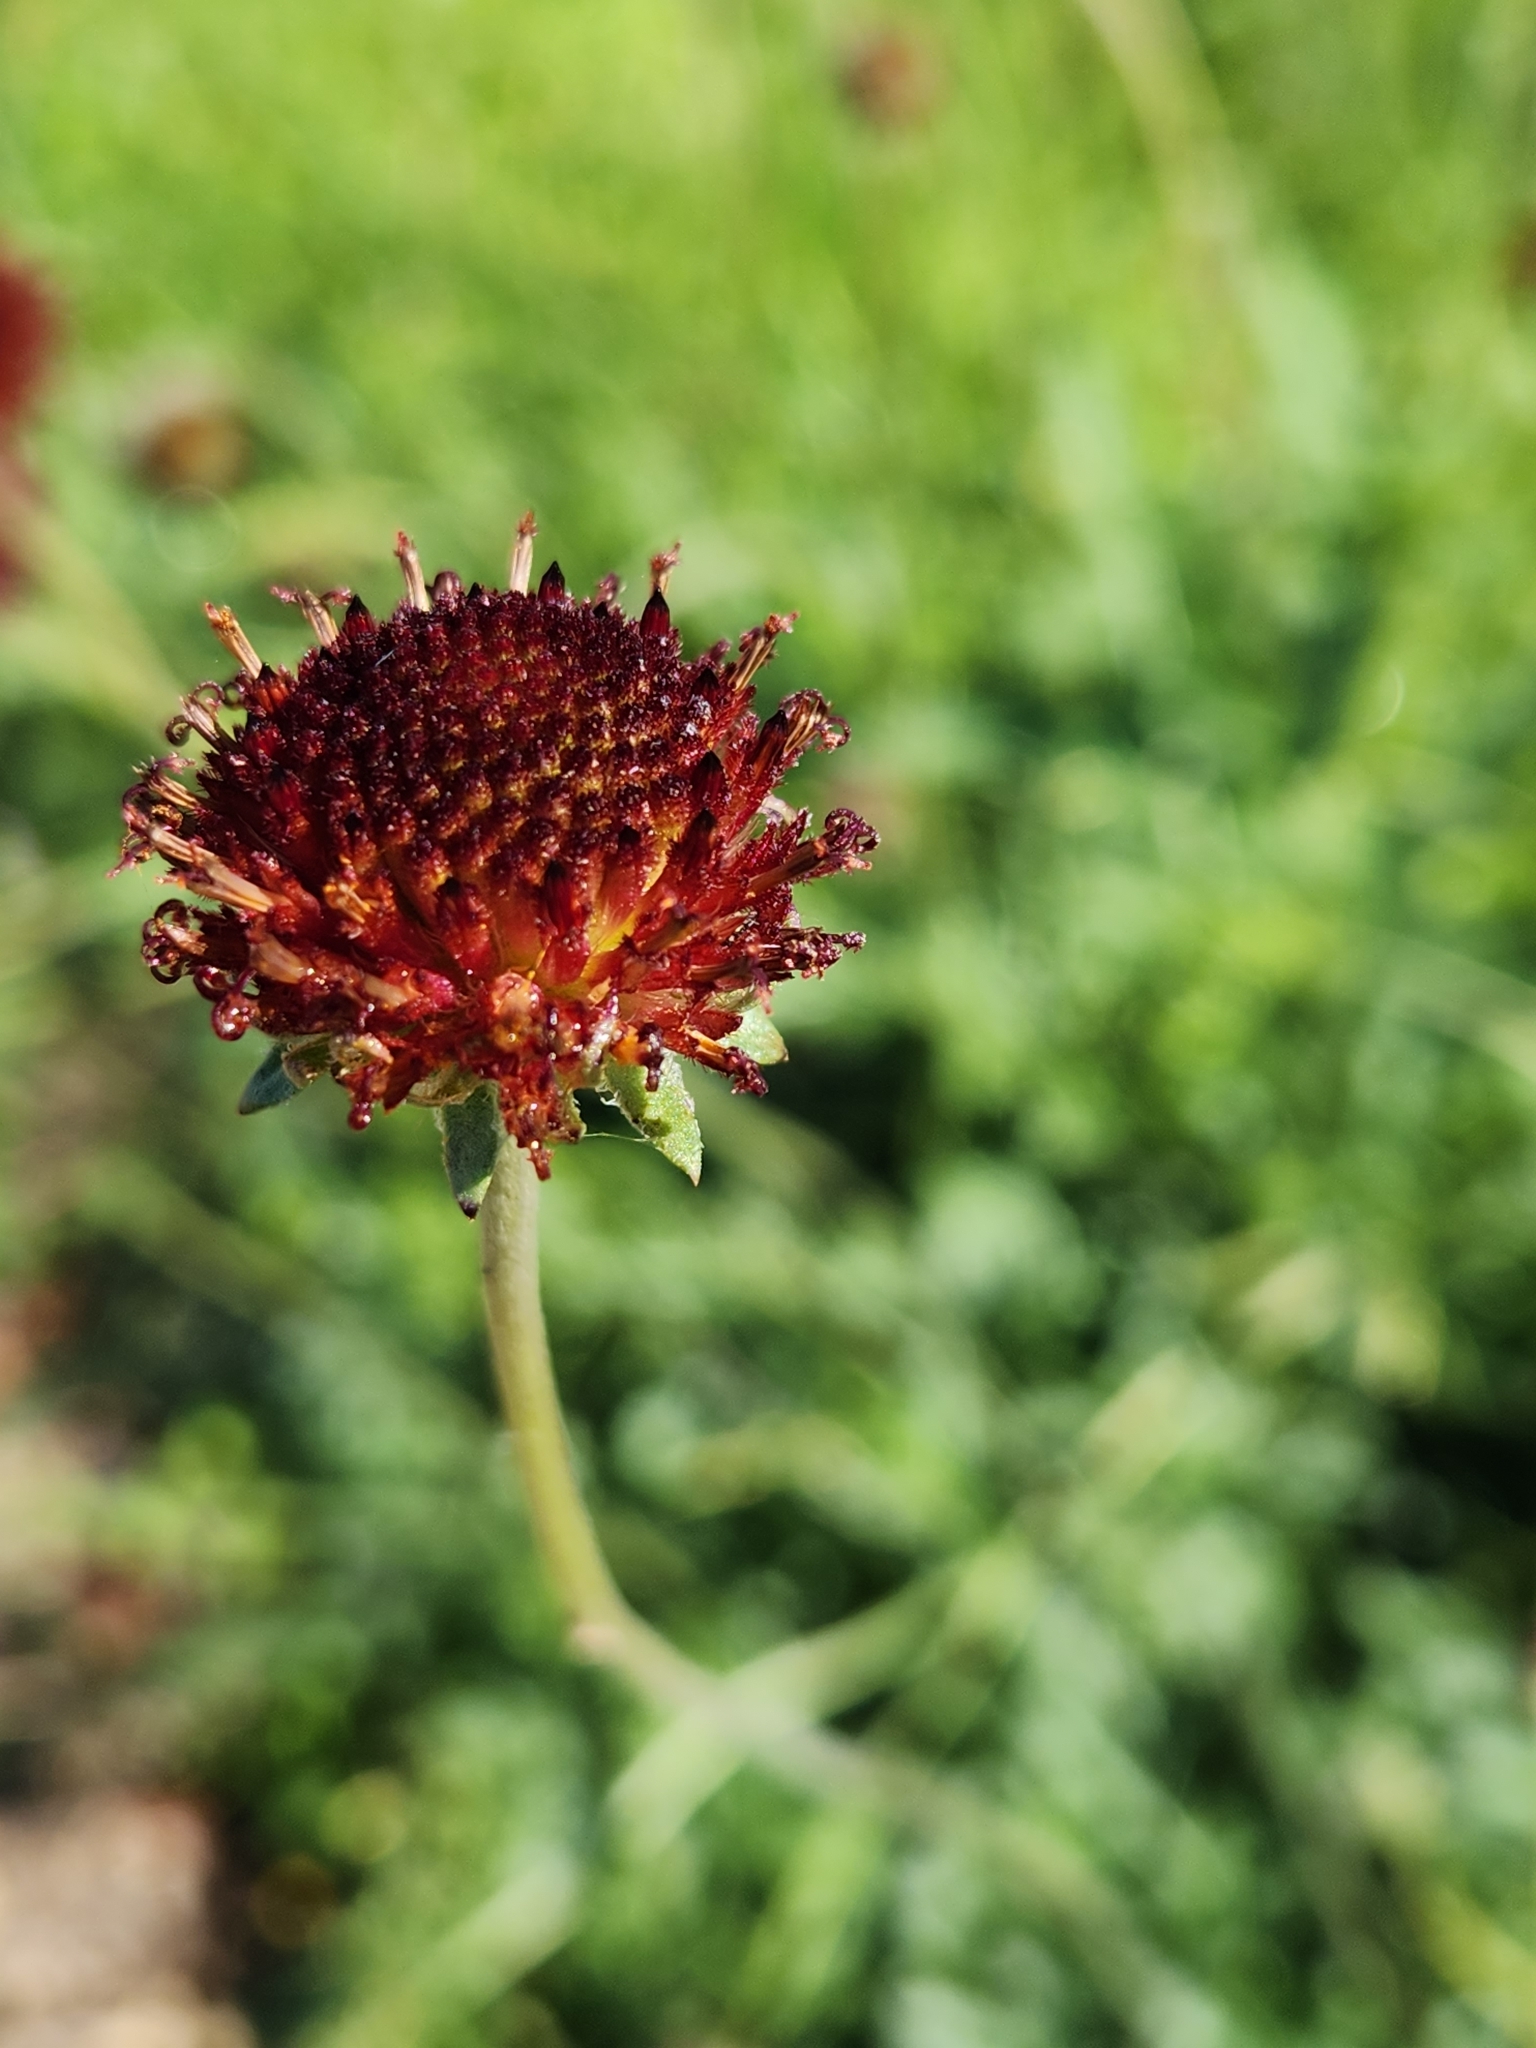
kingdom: Plantae
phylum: Tracheophyta
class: Magnoliopsida
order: Asterales
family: Asteraceae
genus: Gaillardia
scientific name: Gaillardia suavis
